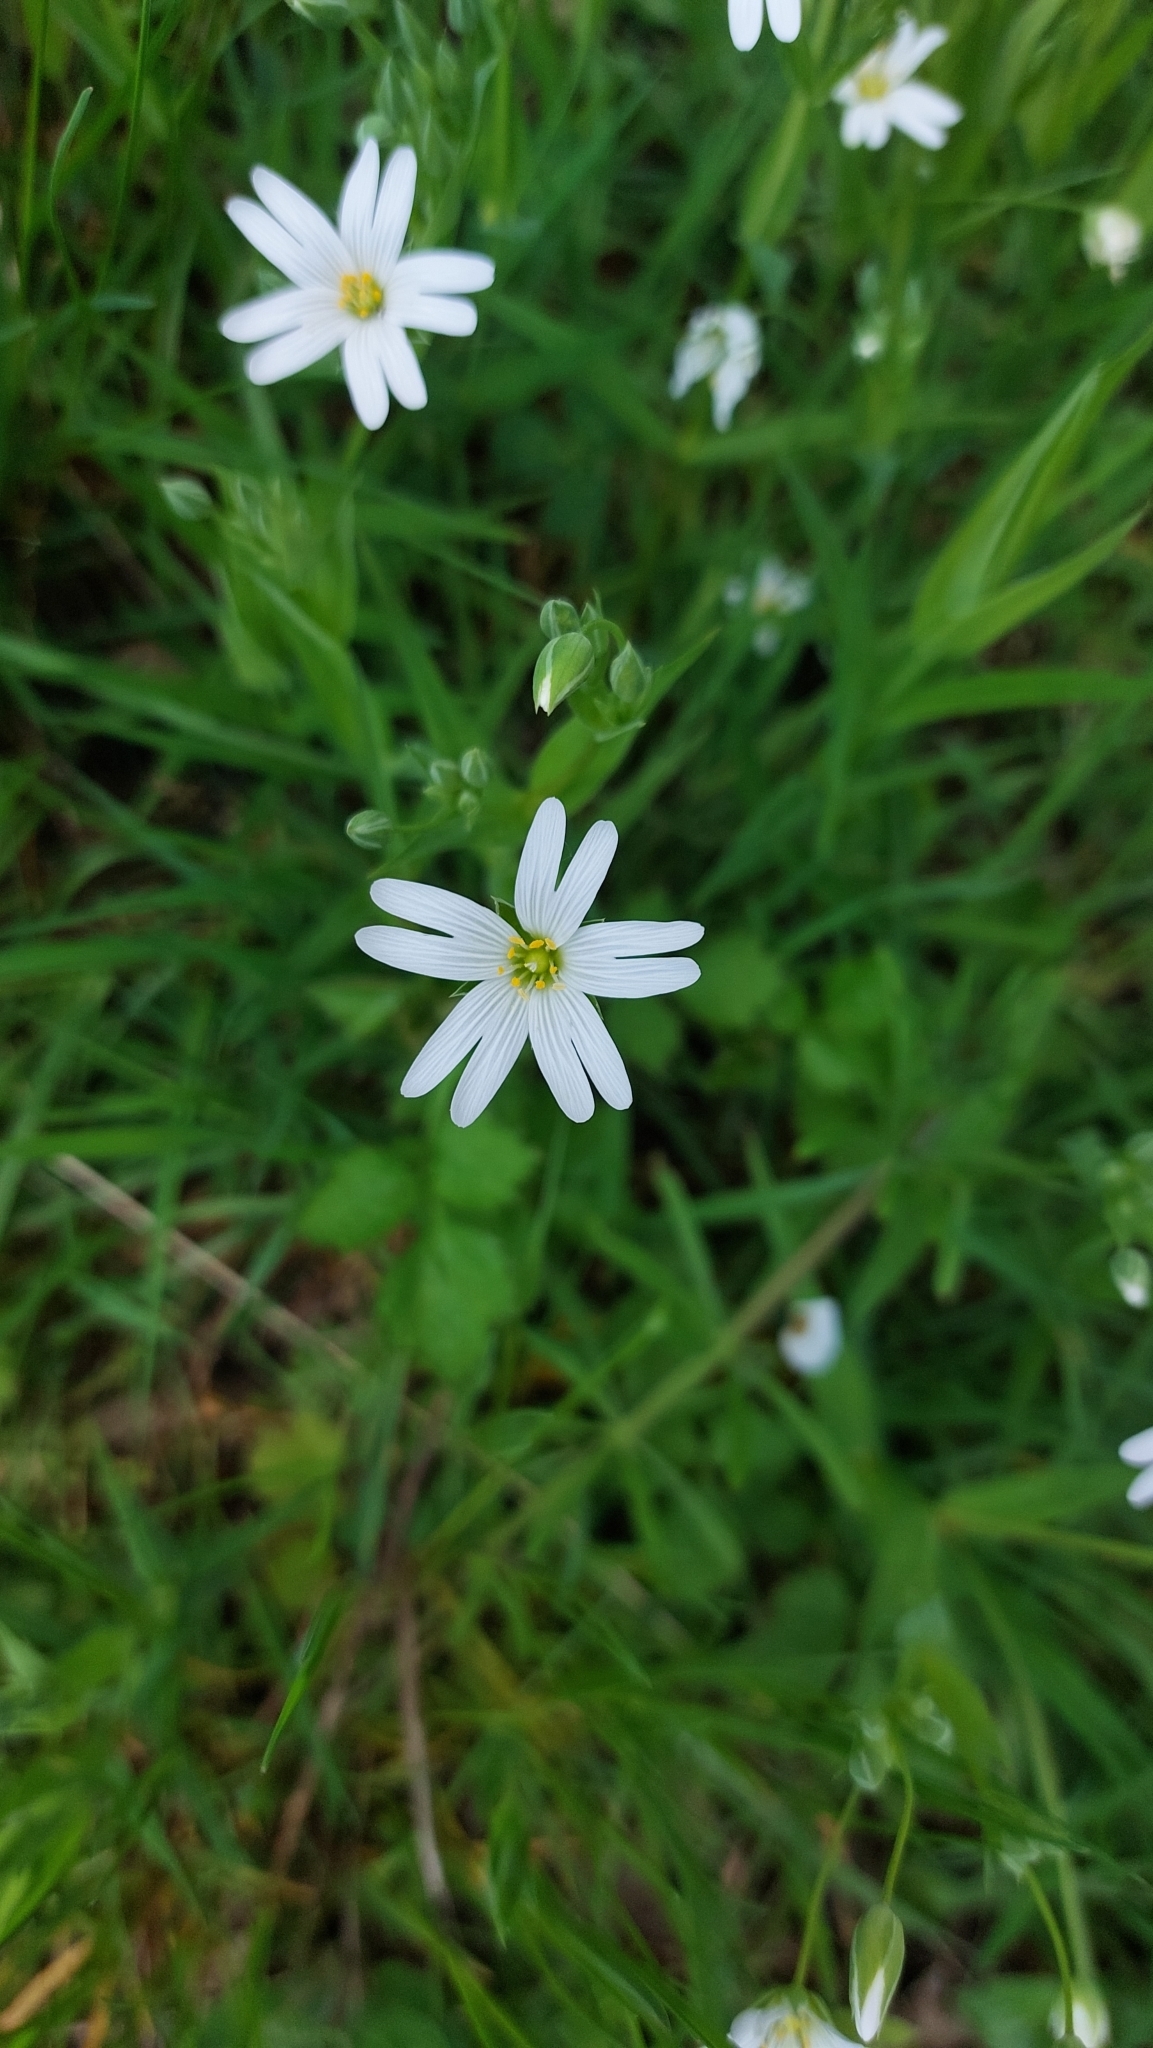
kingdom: Plantae
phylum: Tracheophyta
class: Magnoliopsida
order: Caryophyllales
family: Caryophyllaceae
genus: Rabelera
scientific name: Rabelera holostea
